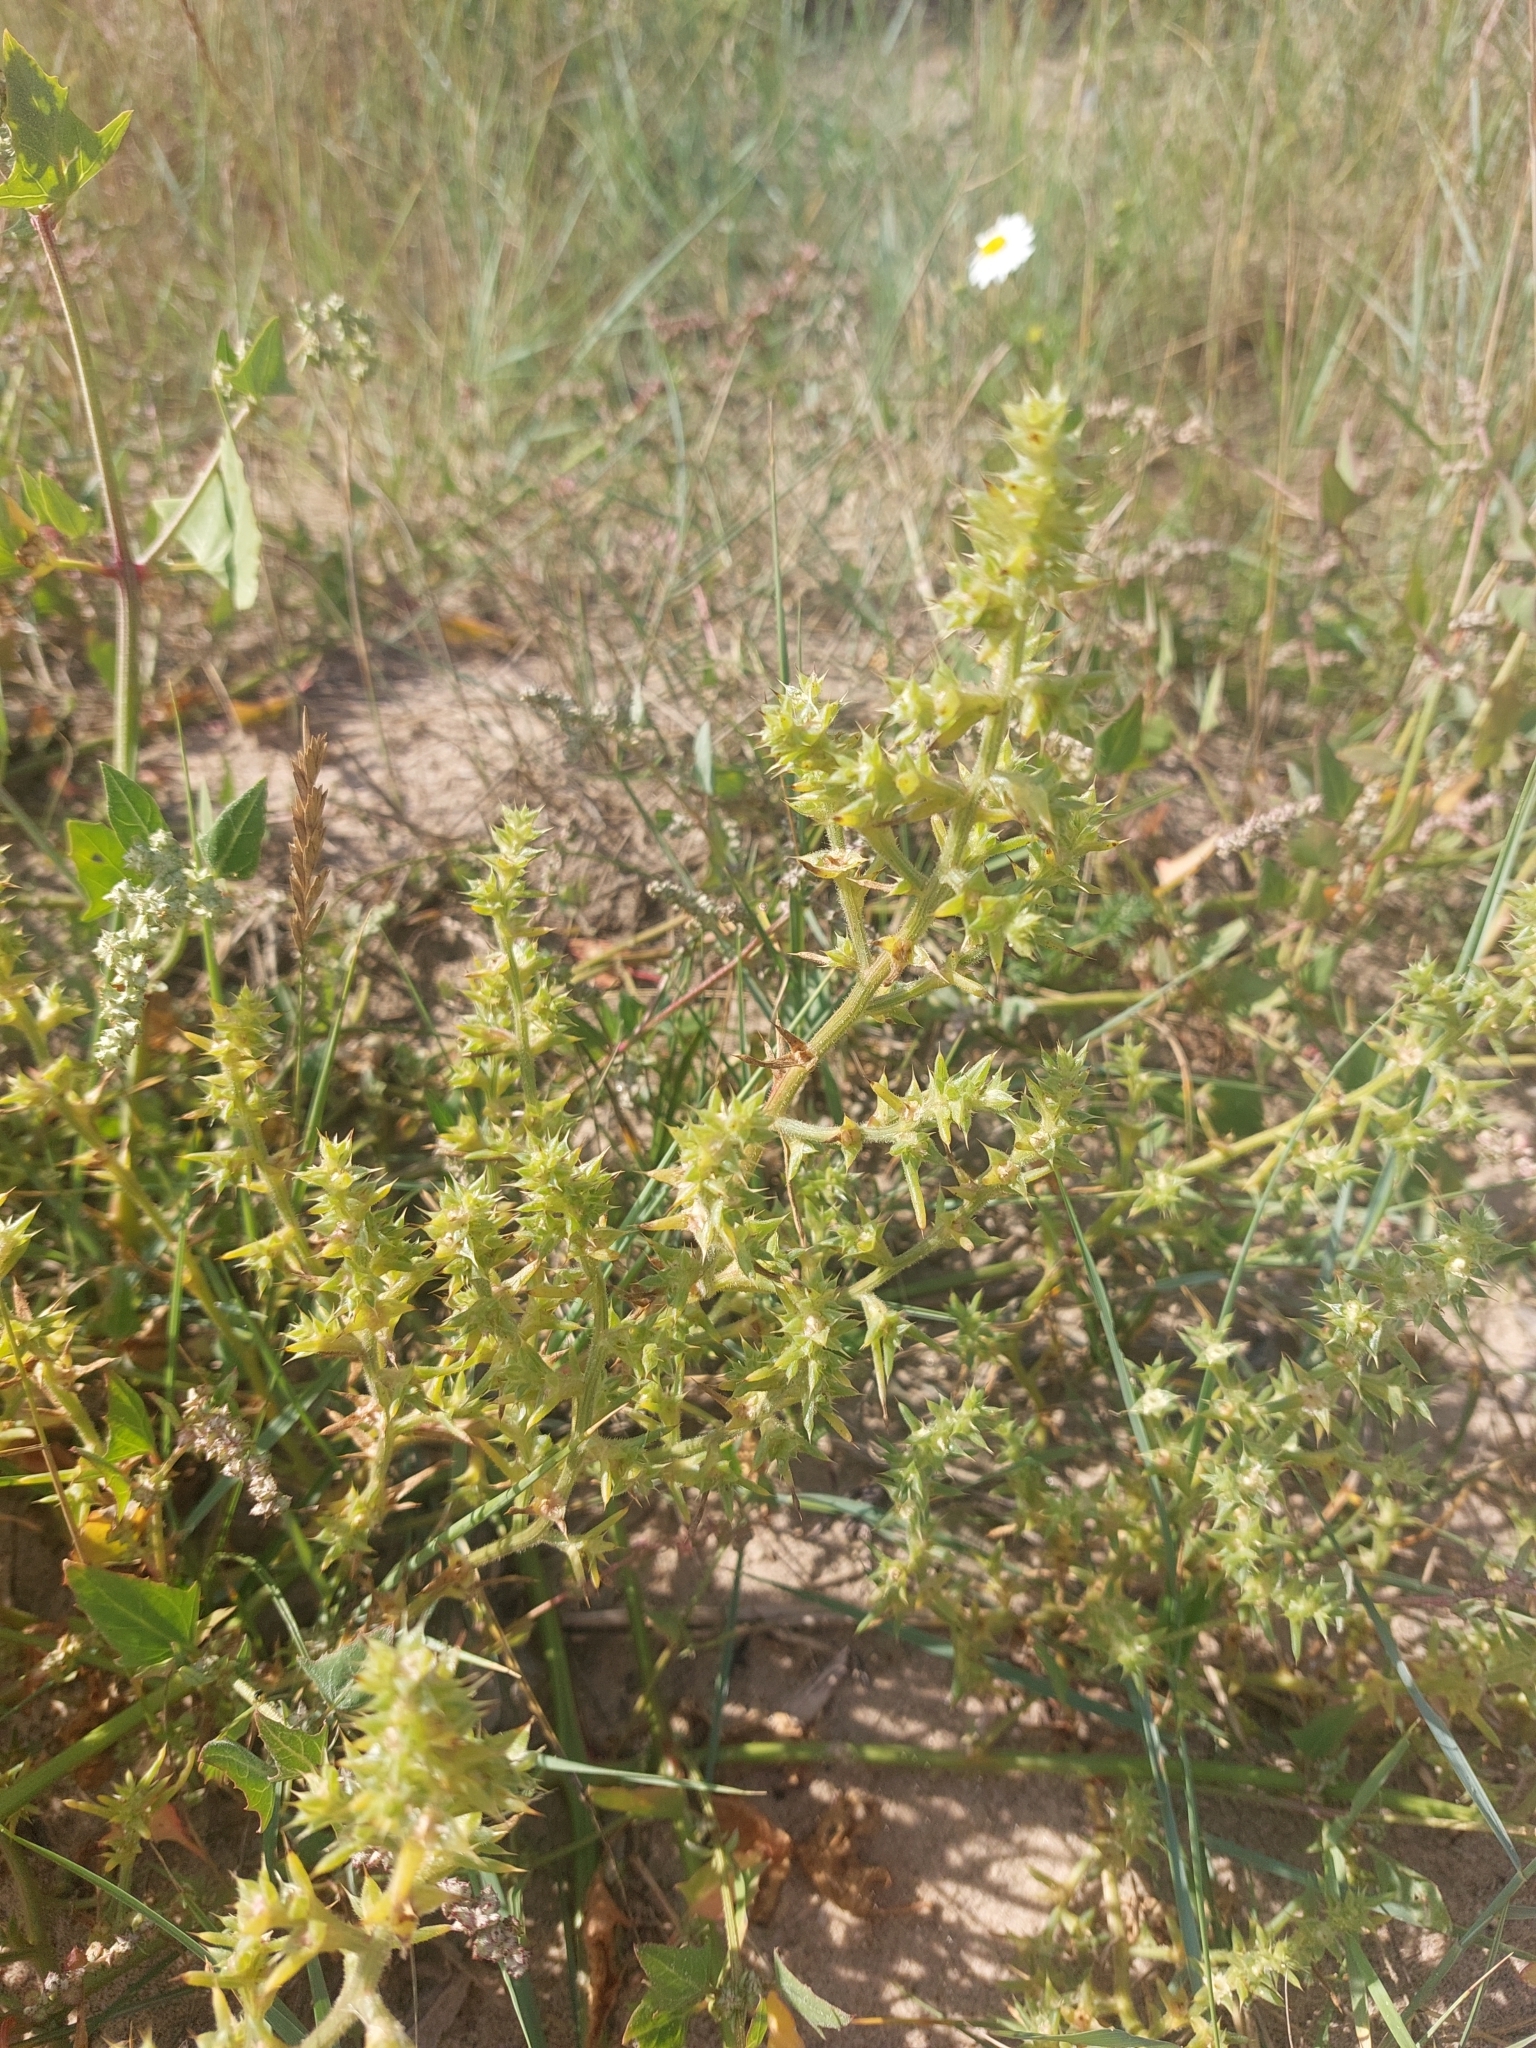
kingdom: Plantae
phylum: Tracheophyta
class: Magnoliopsida
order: Caryophyllales
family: Amaranthaceae
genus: Salsola
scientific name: Salsola kali
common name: Saltwort
